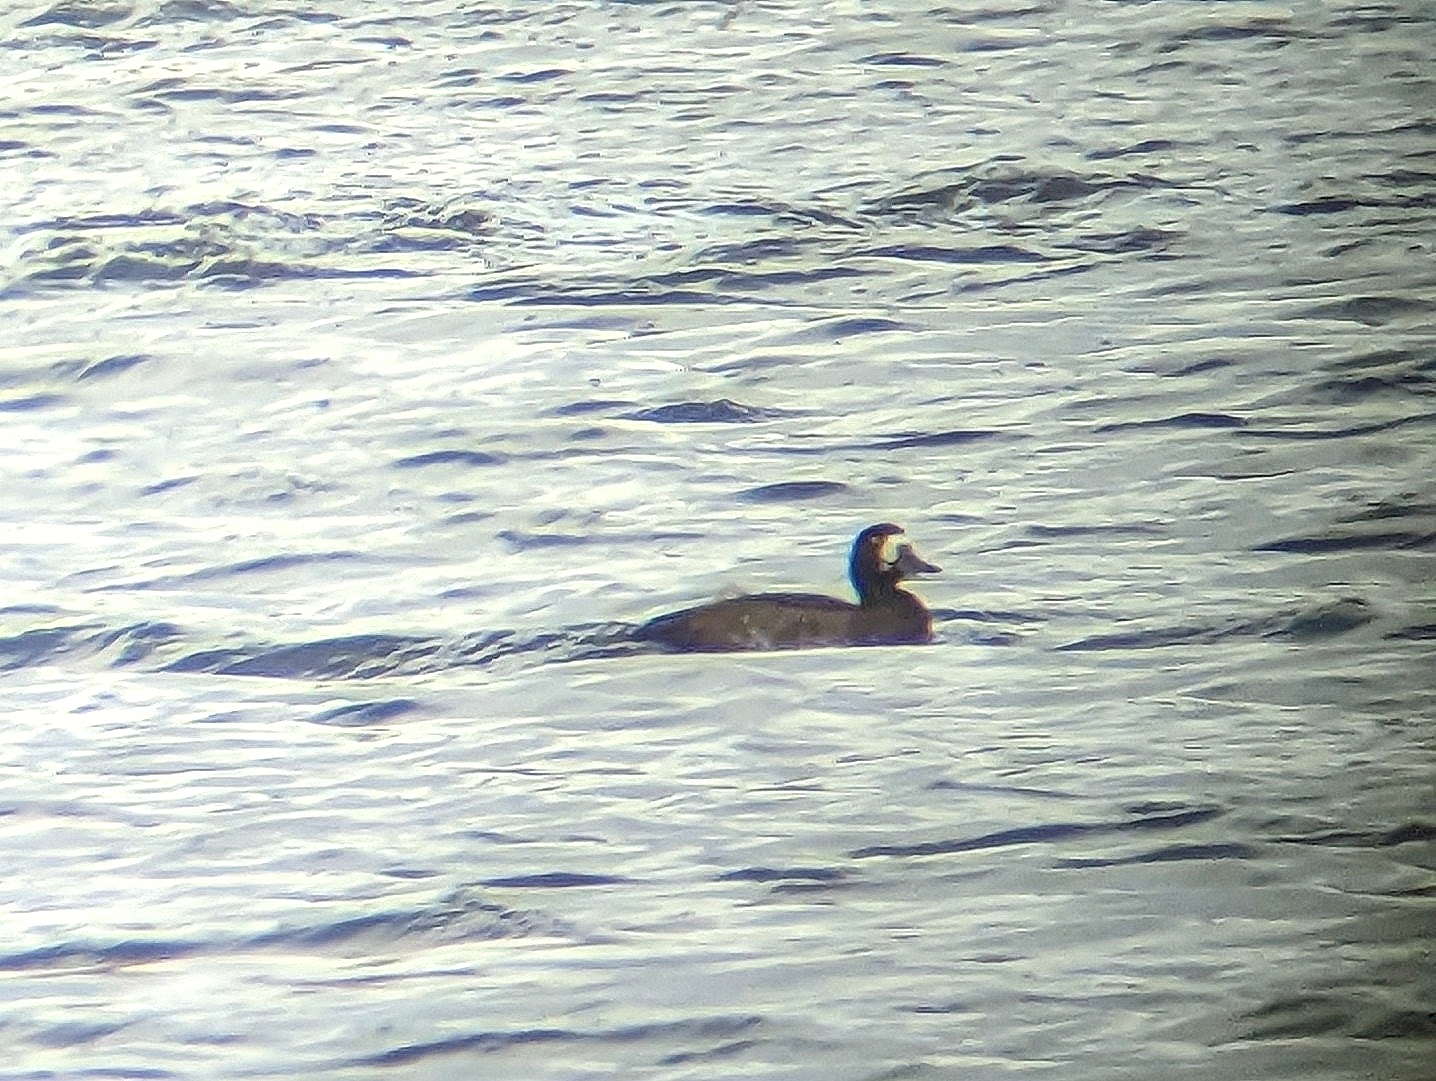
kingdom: Animalia
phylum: Chordata
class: Aves
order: Anseriformes
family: Anatidae
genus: Aythya
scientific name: Aythya marila
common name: Greater scaup
